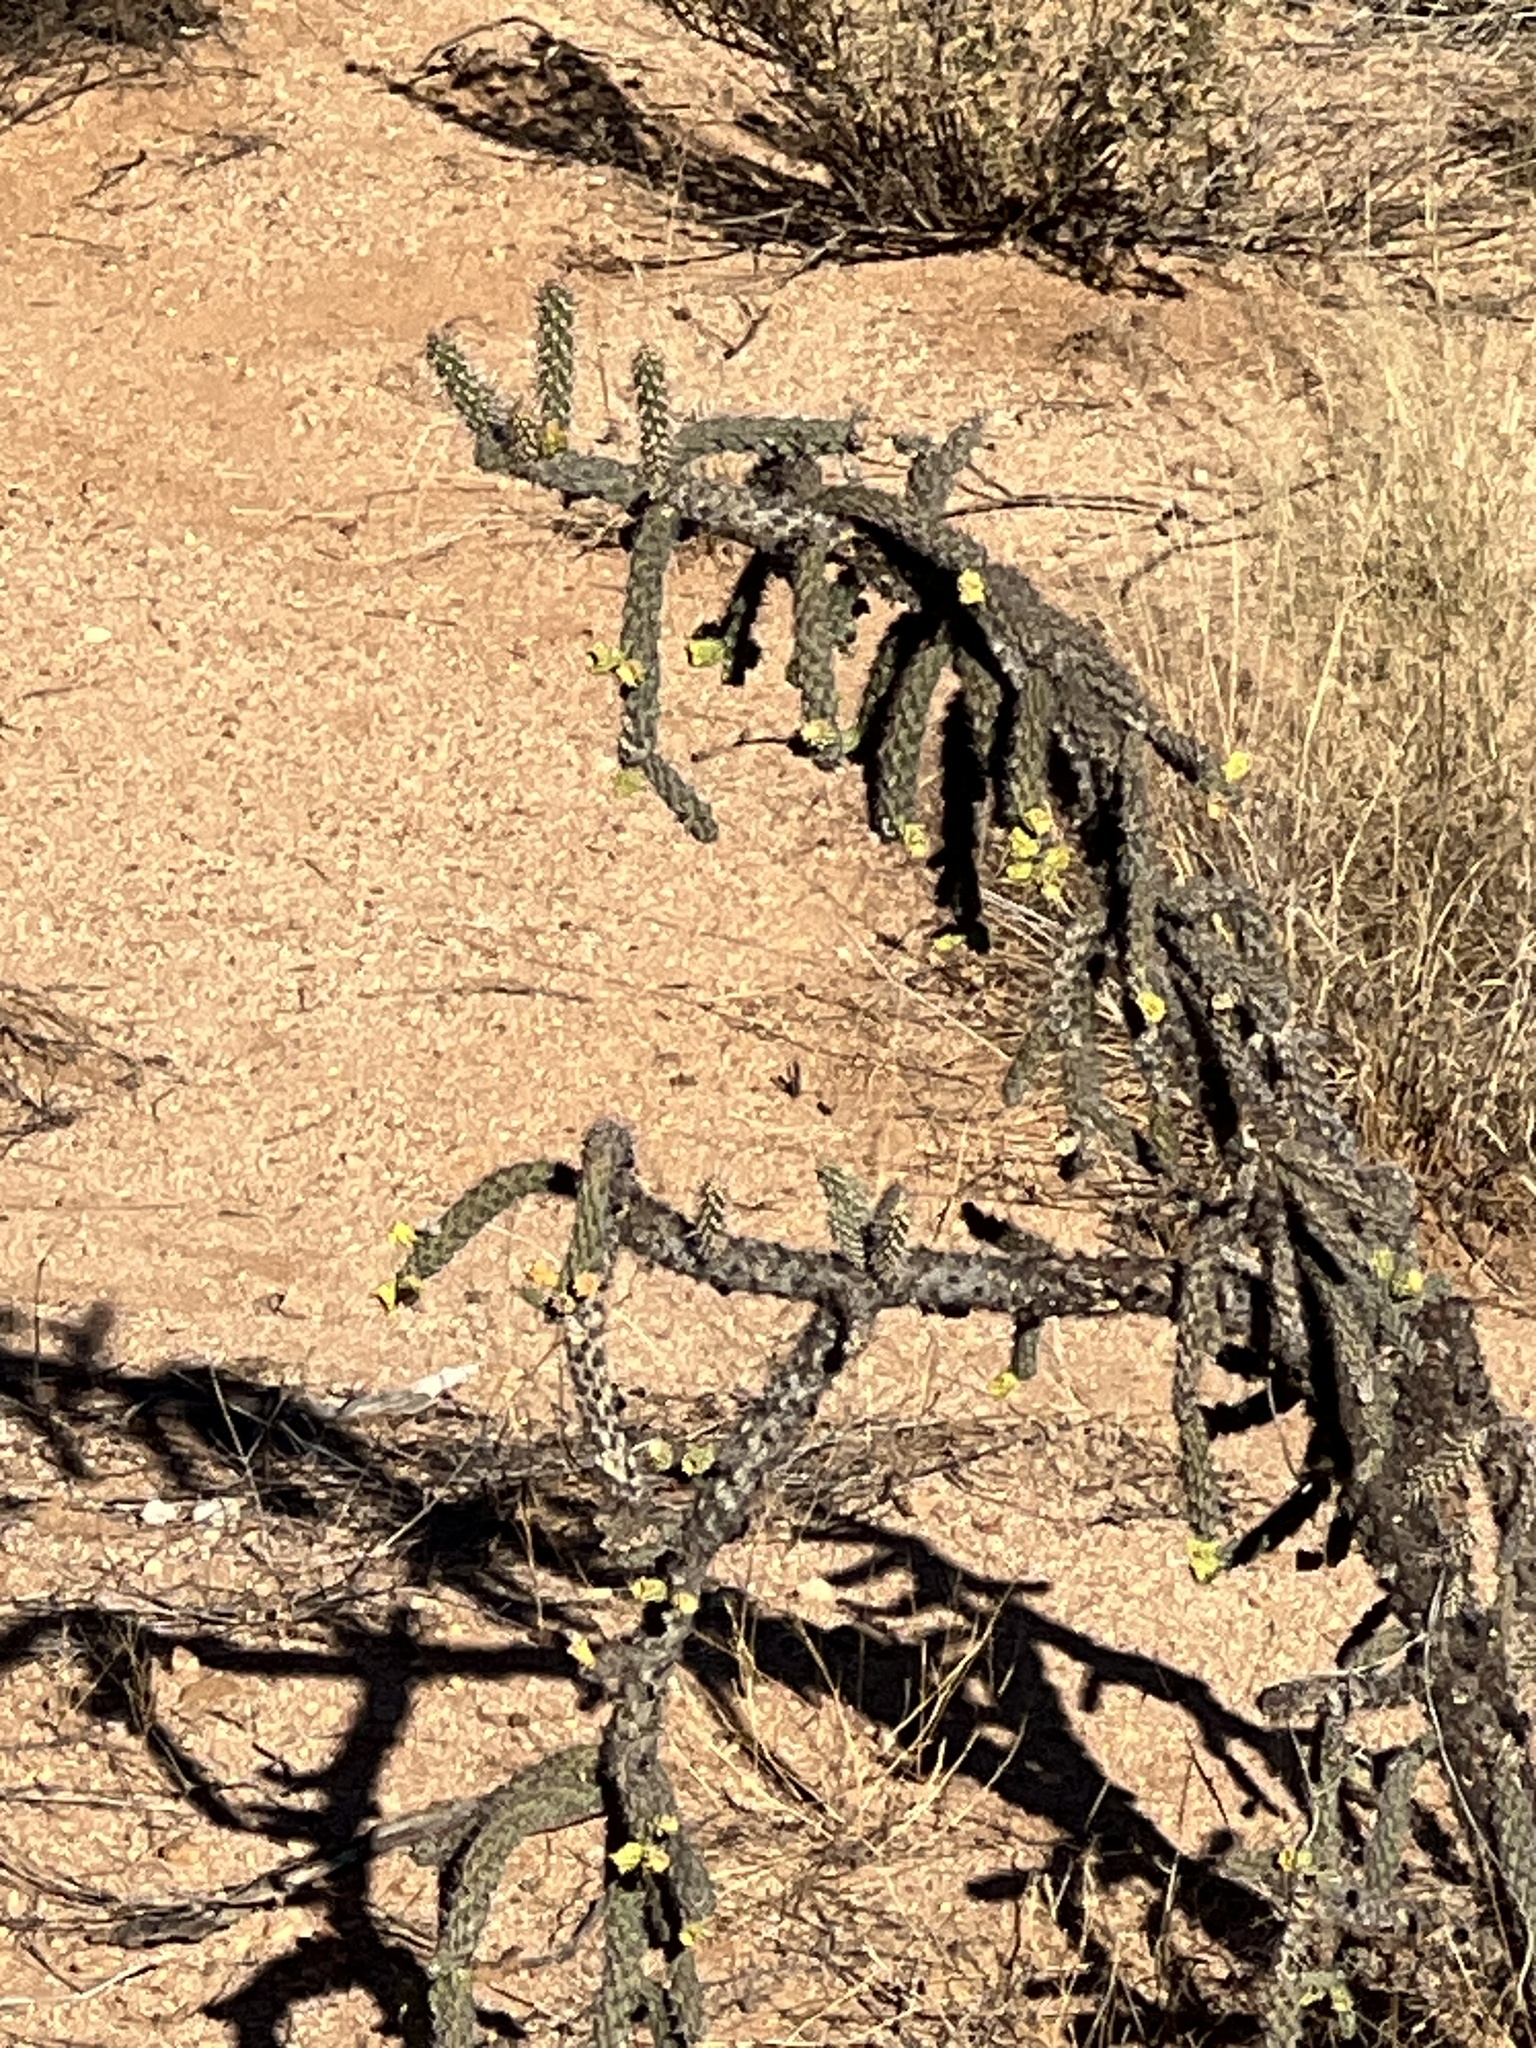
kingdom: Plantae
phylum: Tracheophyta
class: Magnoliopsida
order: Caryophyllales
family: Cactaceae
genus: Cylindropuntia
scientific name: Cylindropuntia imbricata
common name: Candelabrum cactus
